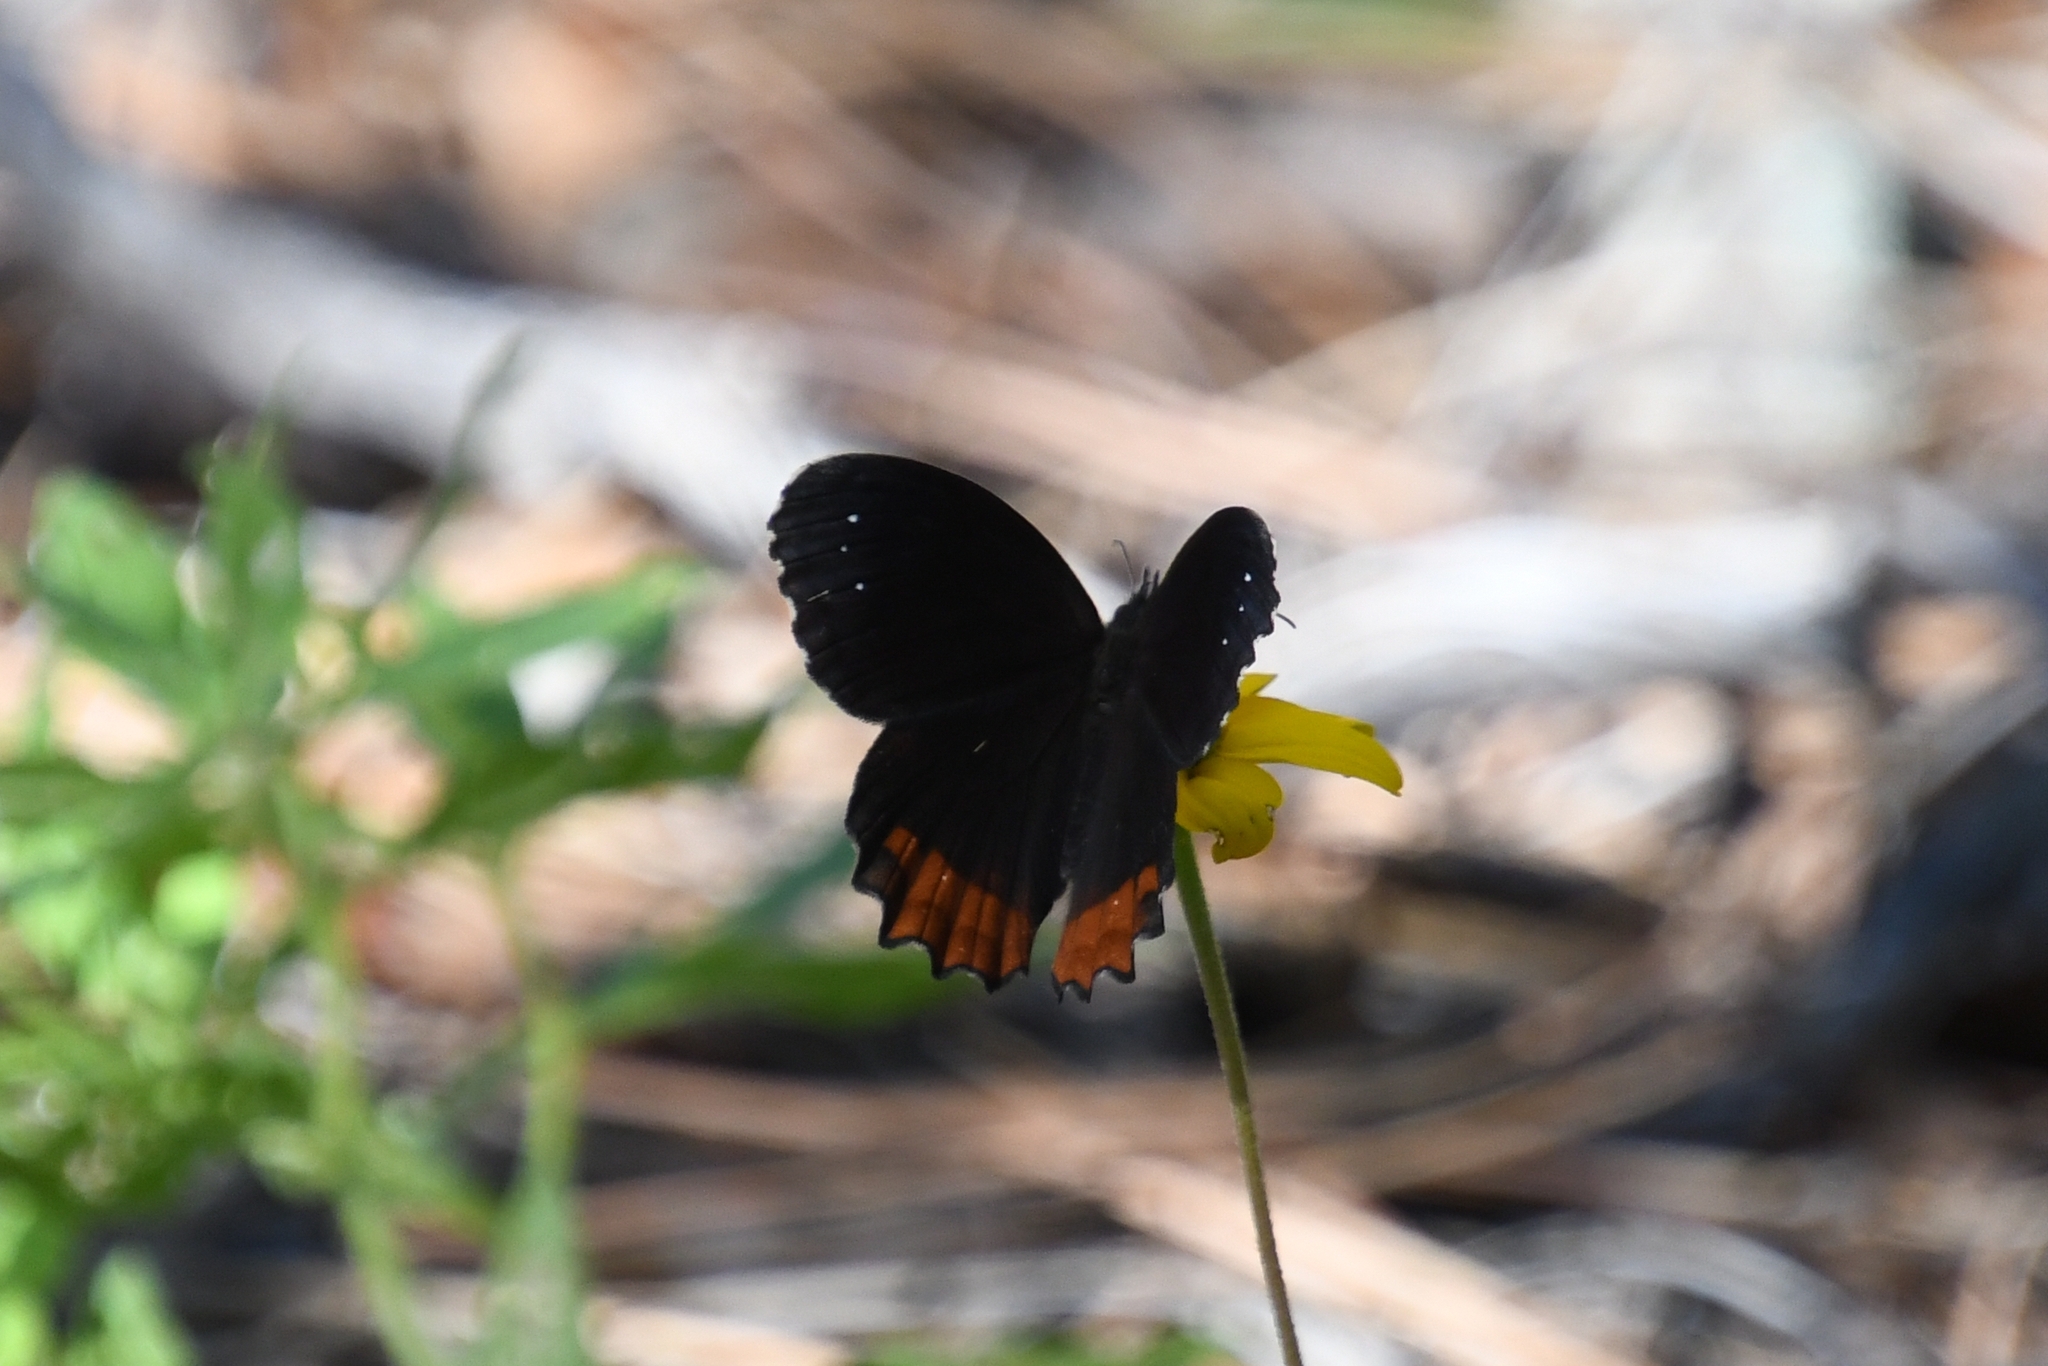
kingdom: Animalia
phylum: Arthropoda
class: Insecta
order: Lepidoptera
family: Nymphalidae
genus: Gyrocheilus
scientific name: Gyrocheilus patrobas
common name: Red-bordered satyr
